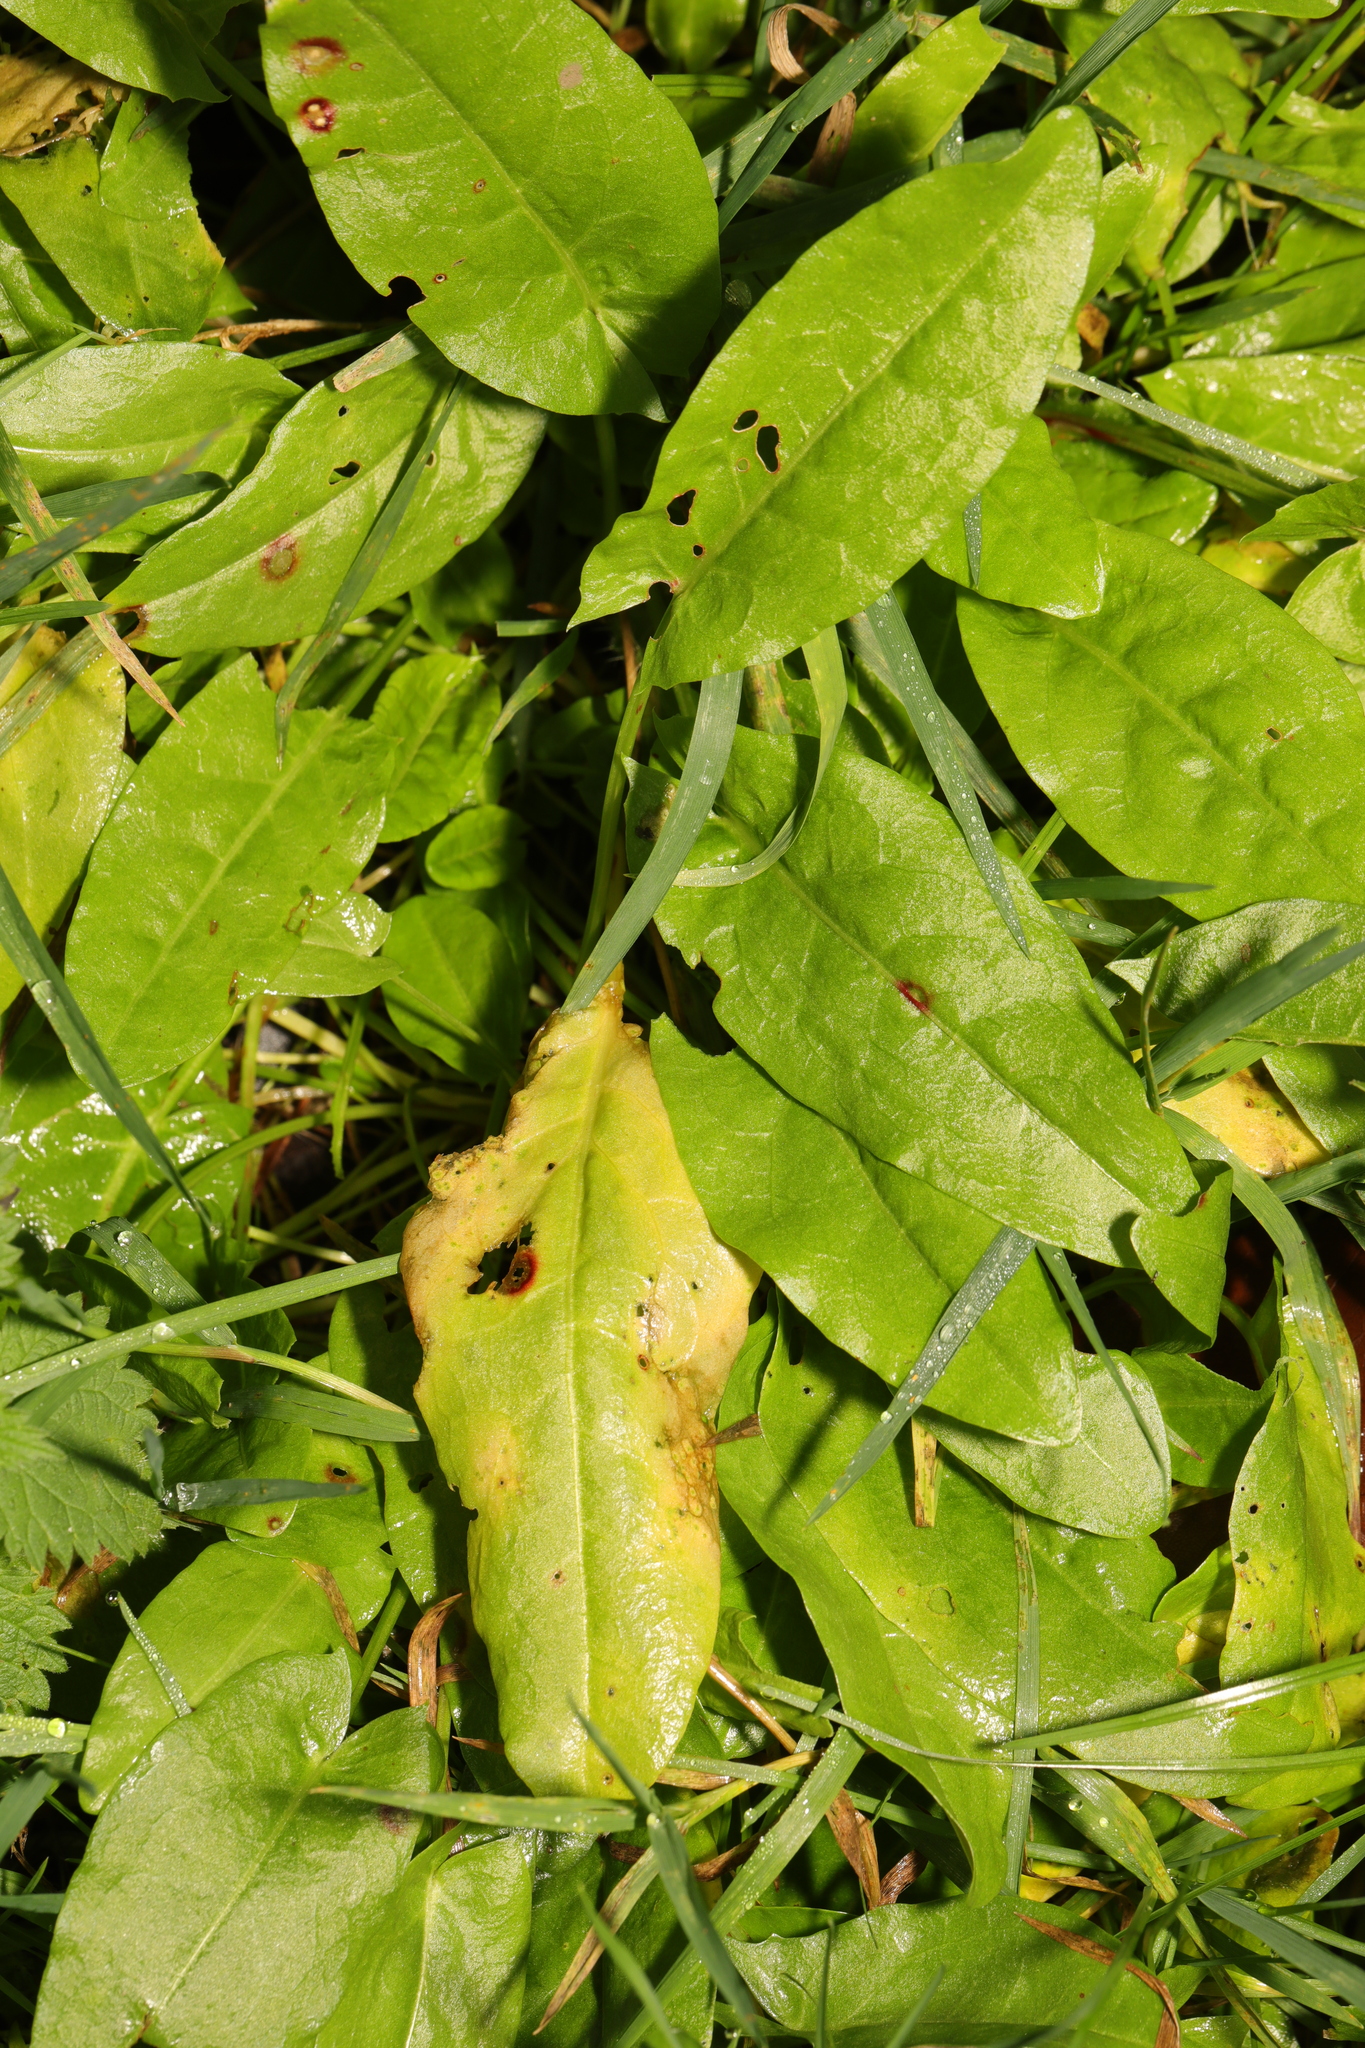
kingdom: Plantae
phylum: Tracheophyta
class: Magnoliopsida
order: Caryophyllales
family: Polygonaceae
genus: Rumex
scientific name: Rumex acetosa
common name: Garden sorrel
